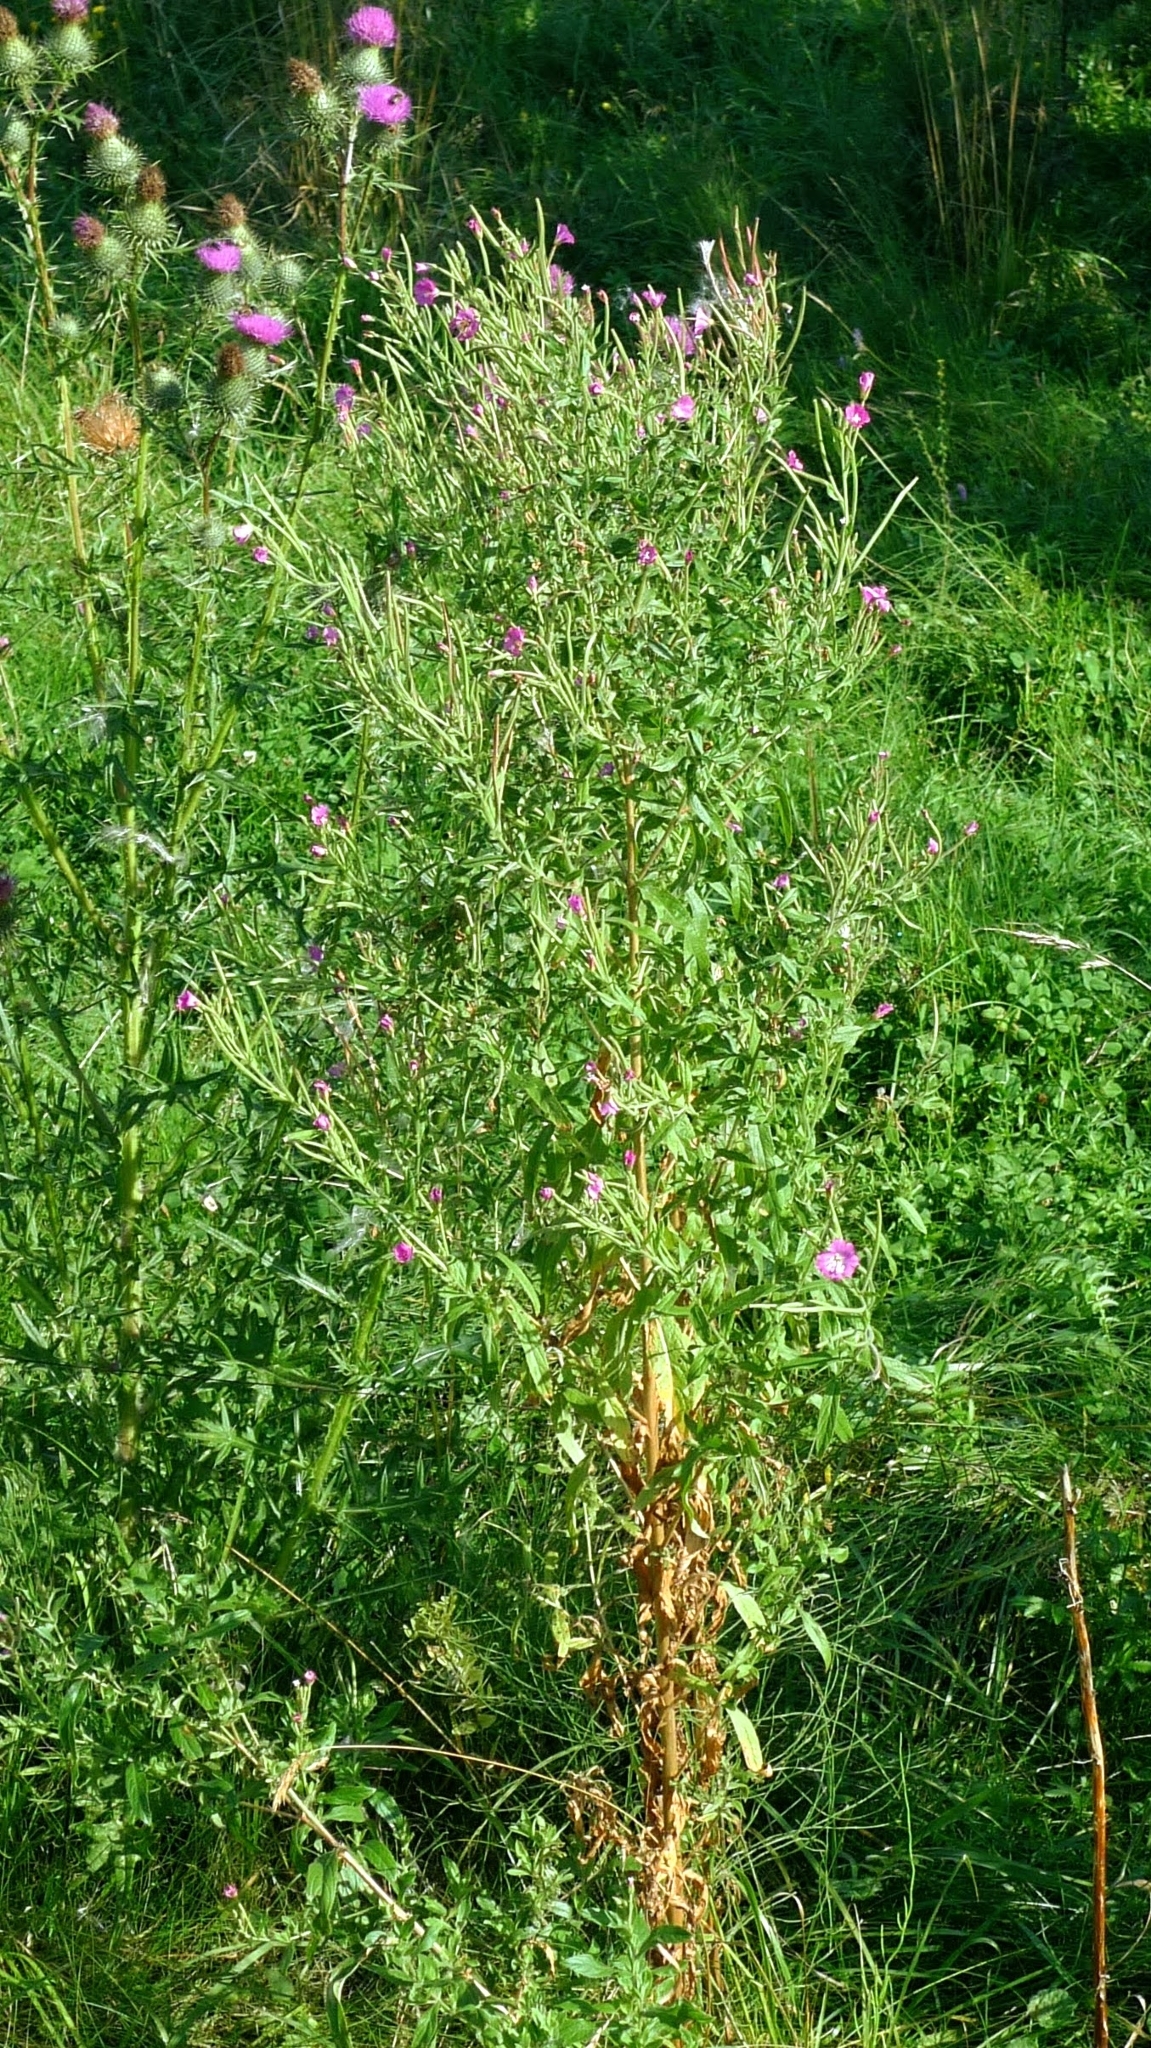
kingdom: Plantae
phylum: Tracheophyta
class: Magnoliopsida
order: Myrtales
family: Onagraceae
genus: Epilobium
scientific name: Epilobium hirsutum
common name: Great willowherb
